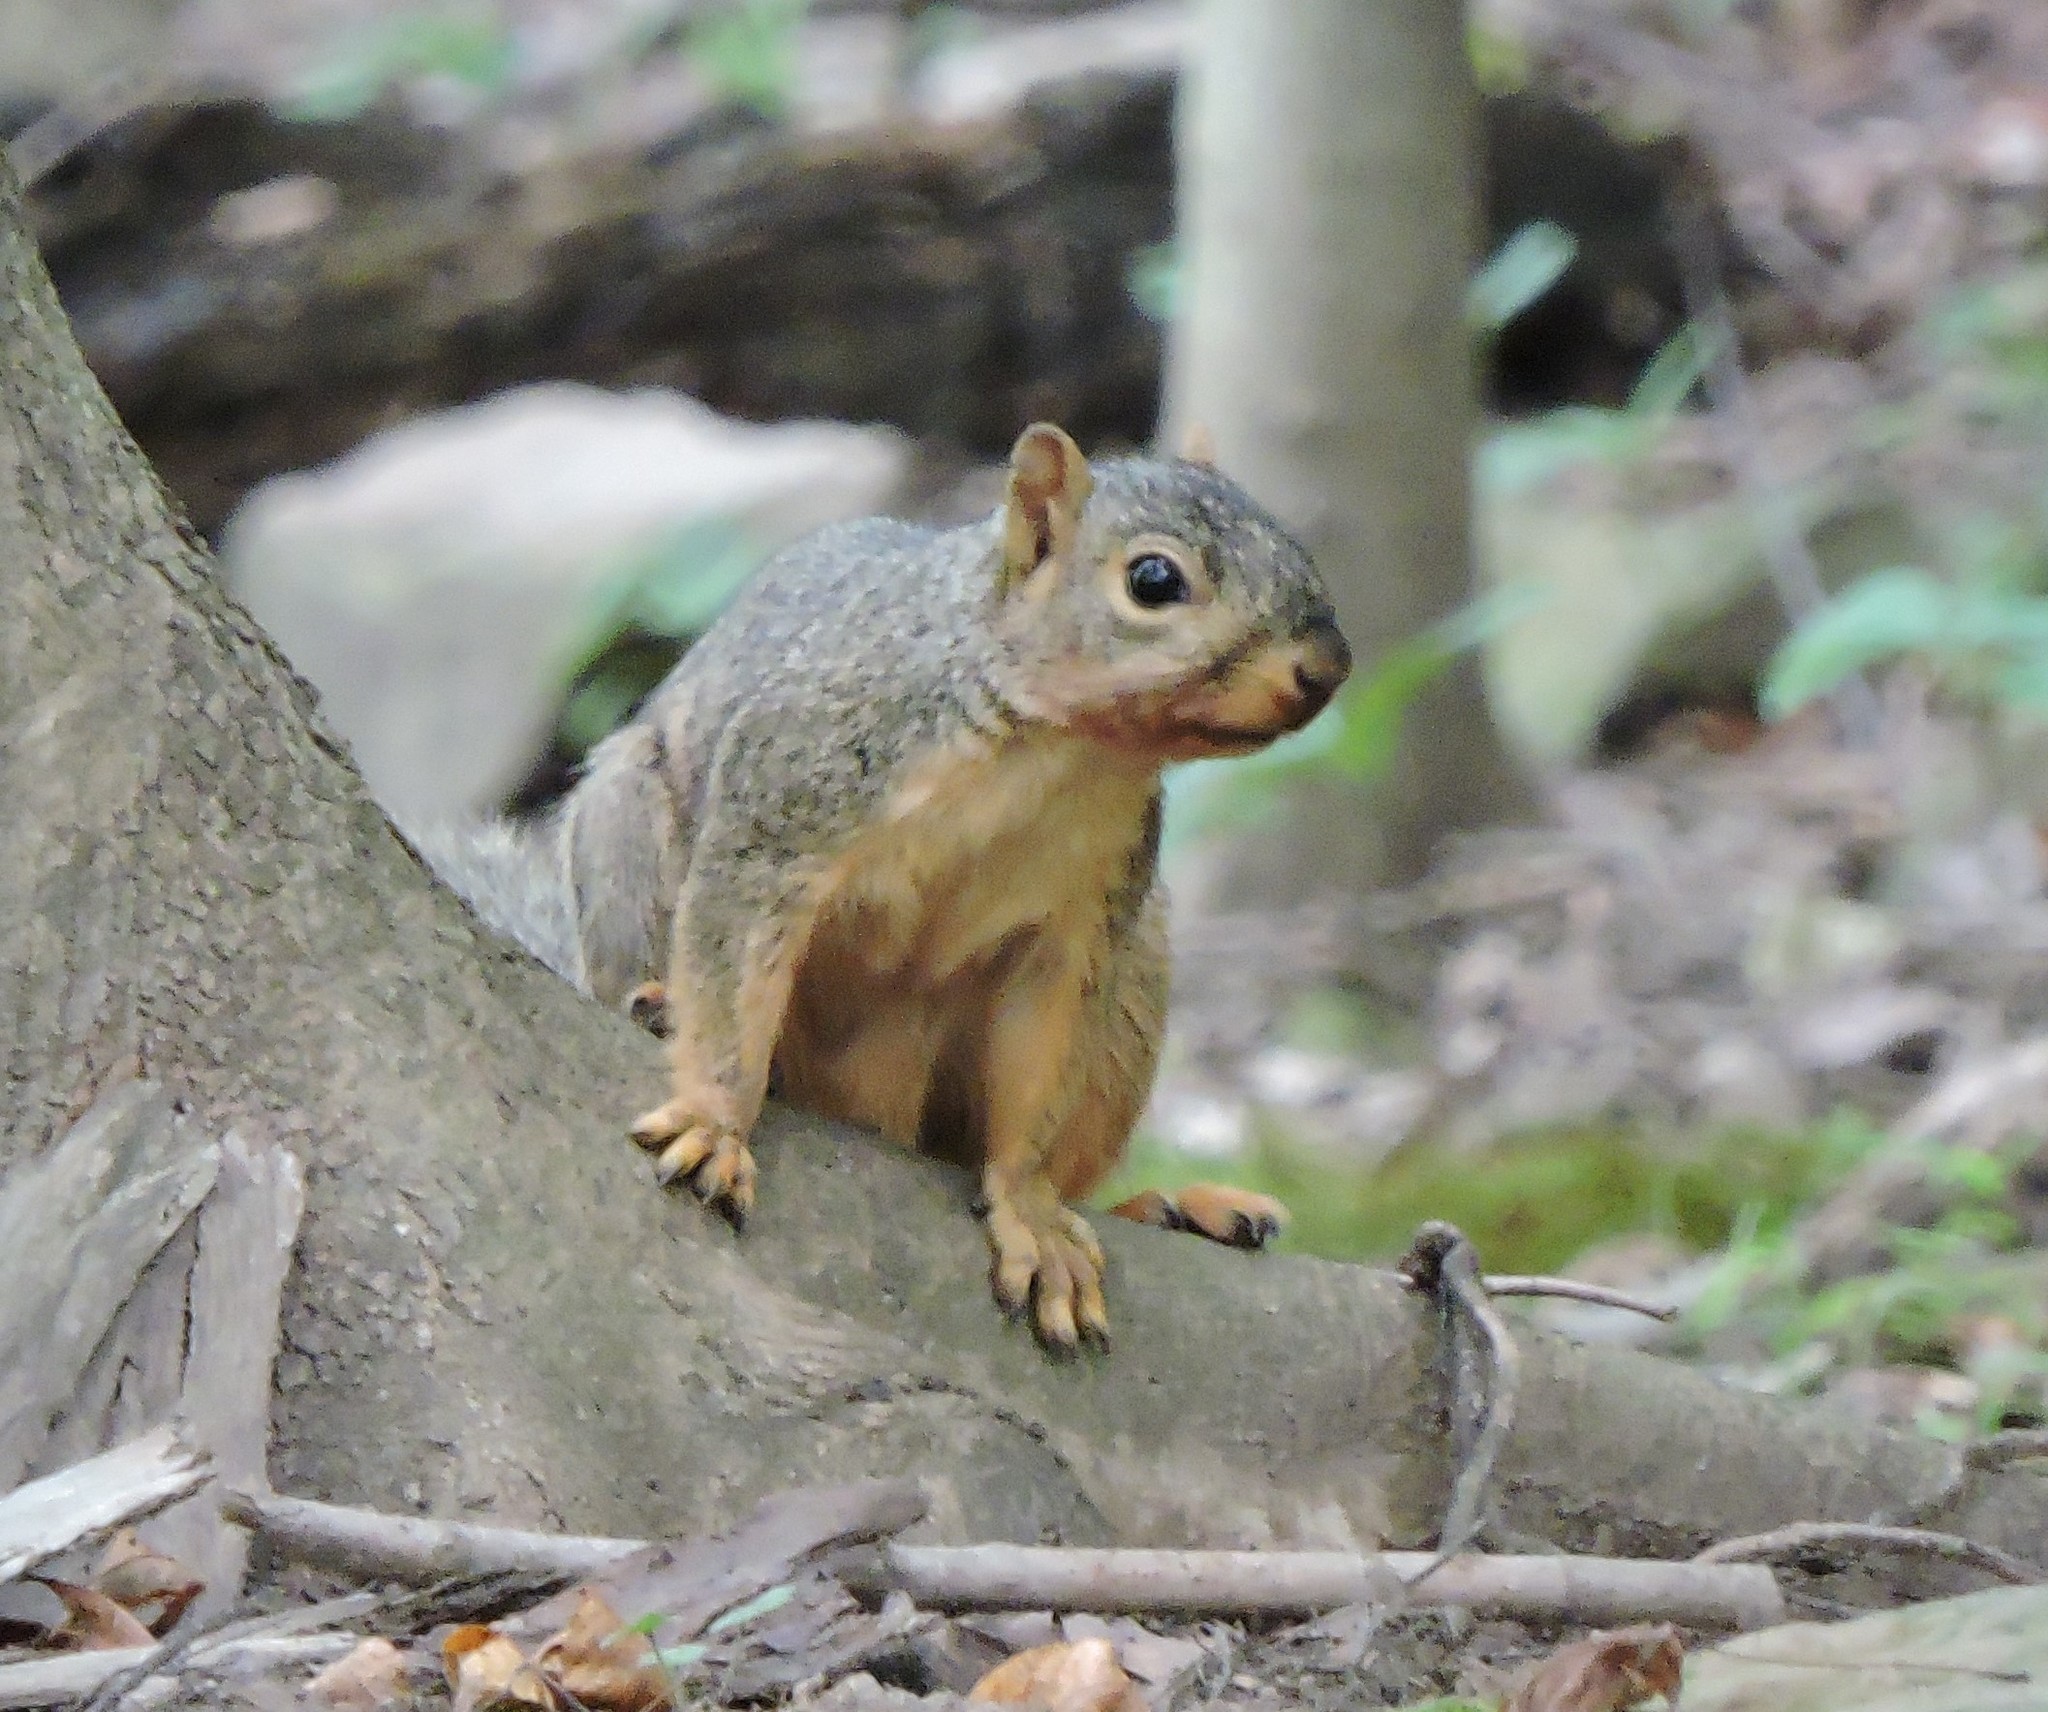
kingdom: Animalia
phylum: Chordata
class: Mammalia
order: Rodentia
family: Sciuridae
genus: Sciurus
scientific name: Sciurus niger
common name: Fox squirrel
